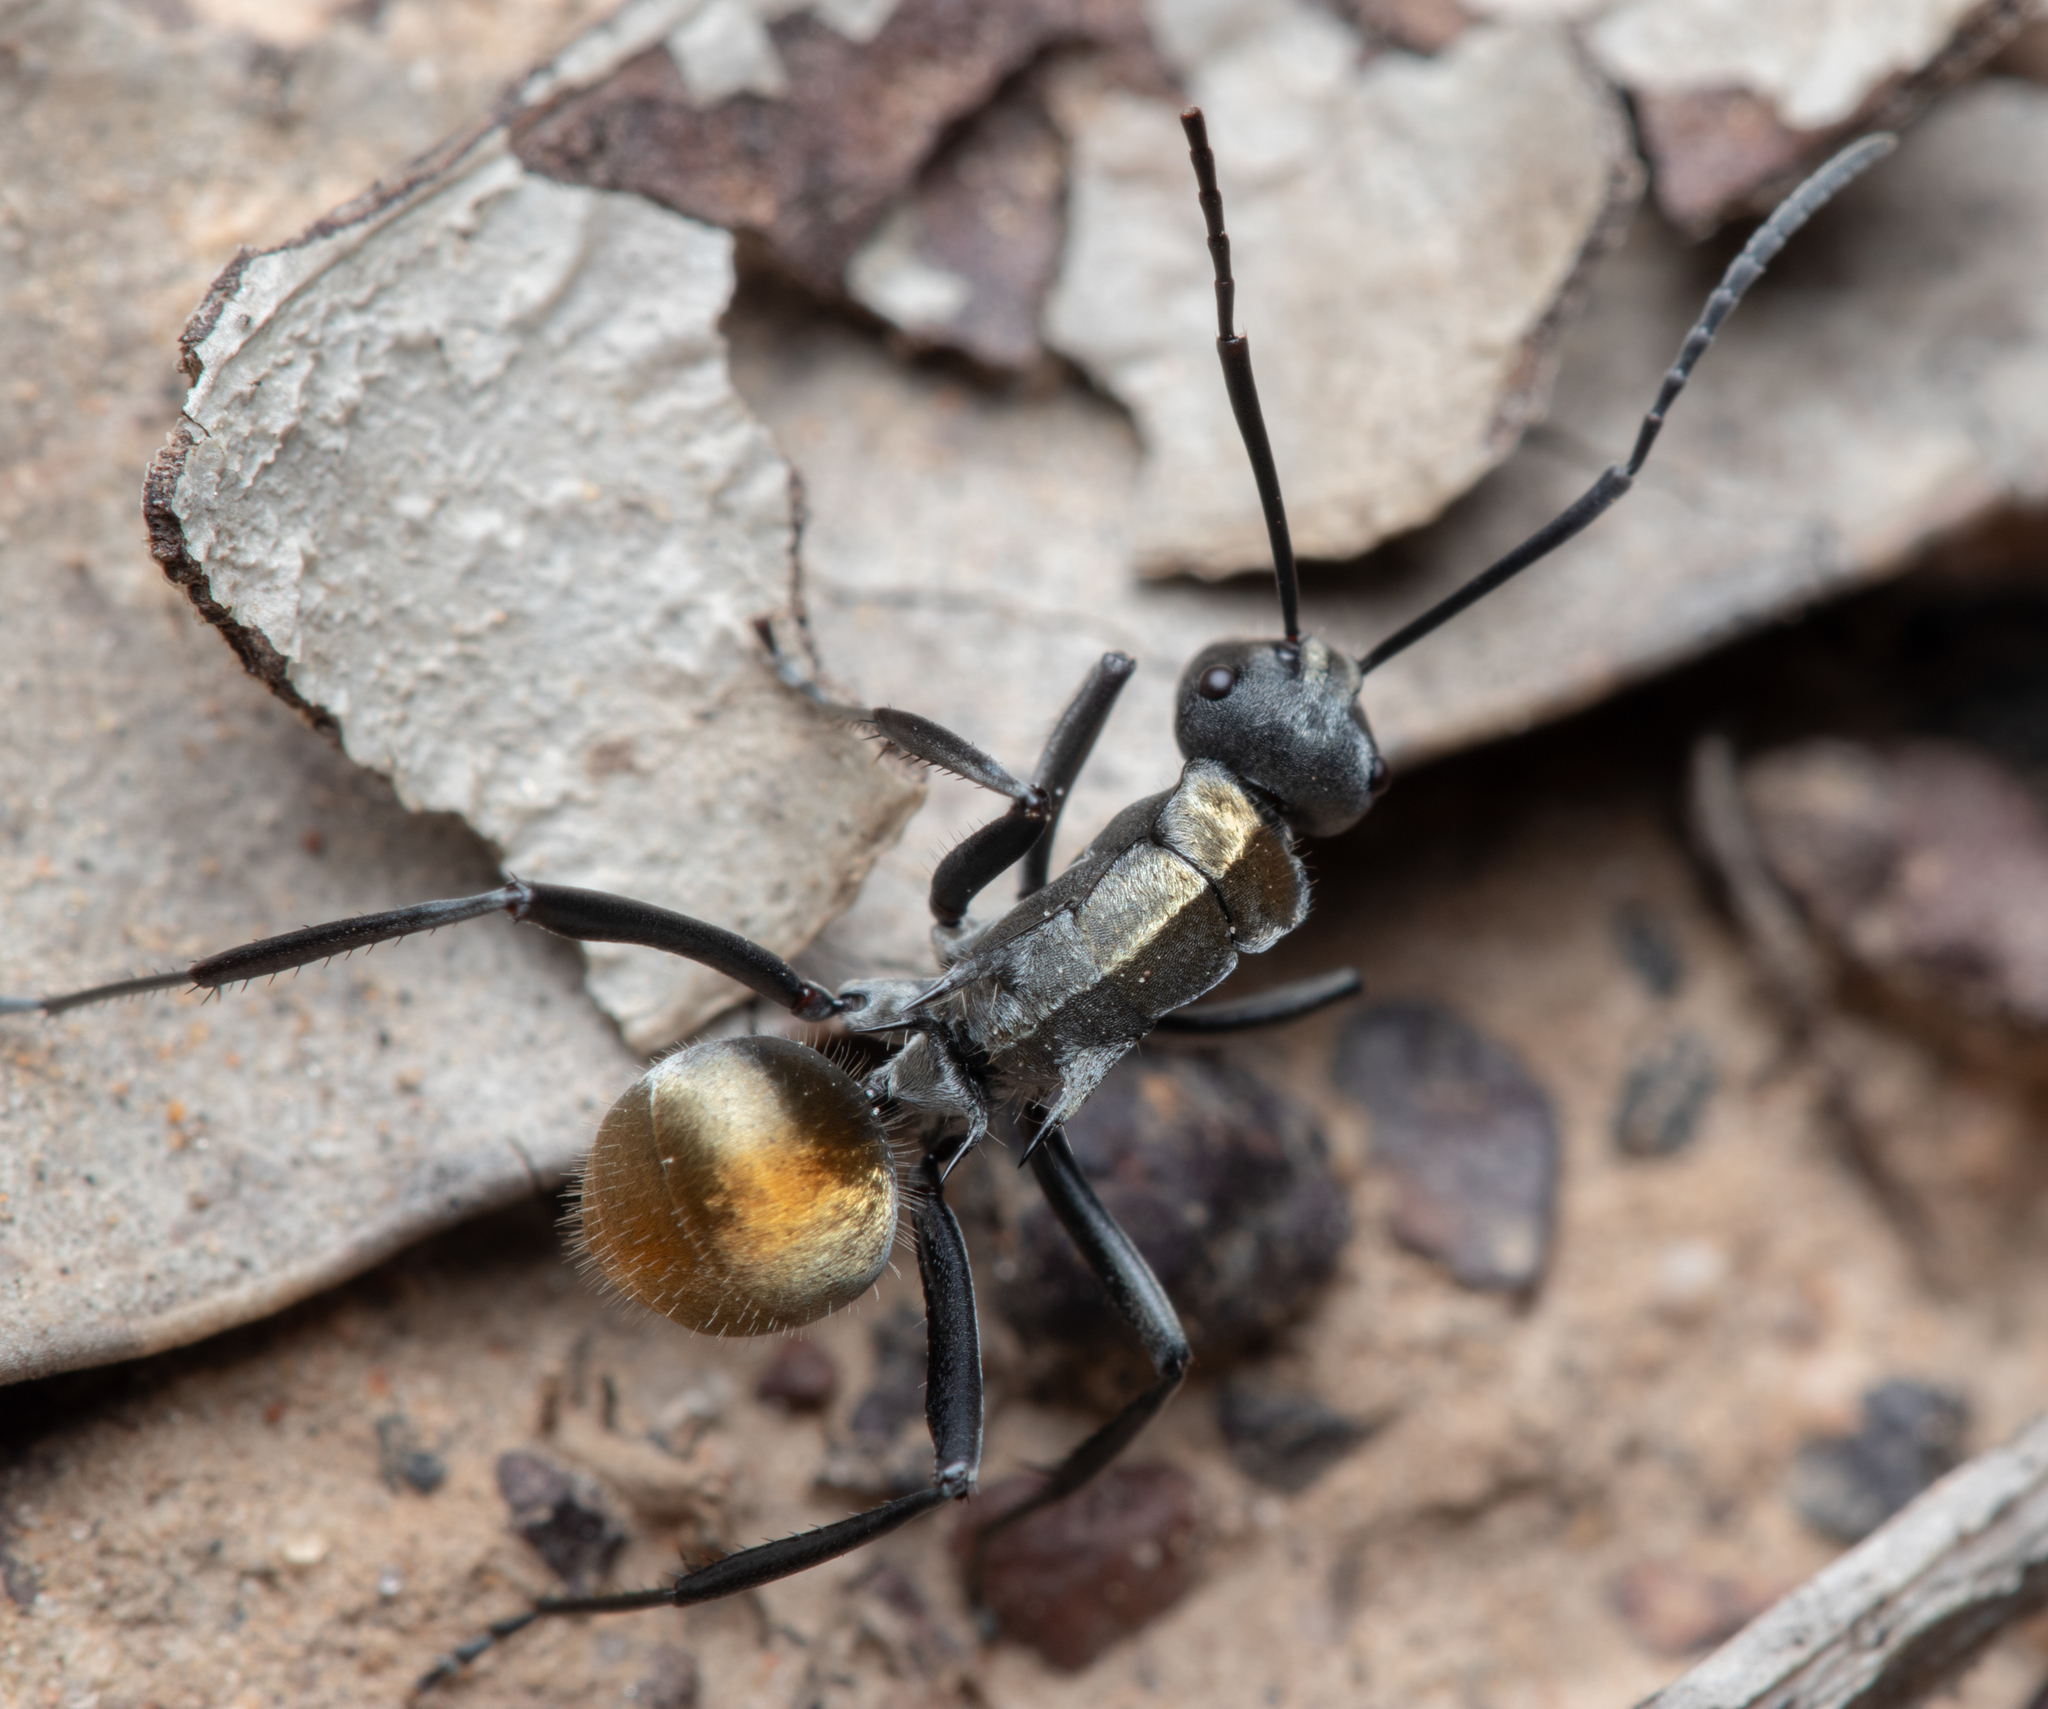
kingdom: Animalia
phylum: Arthropoda
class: Insecta
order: Hymenoptera
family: Formicidae
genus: Polyrhachis
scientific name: Polyrhachis ammon
